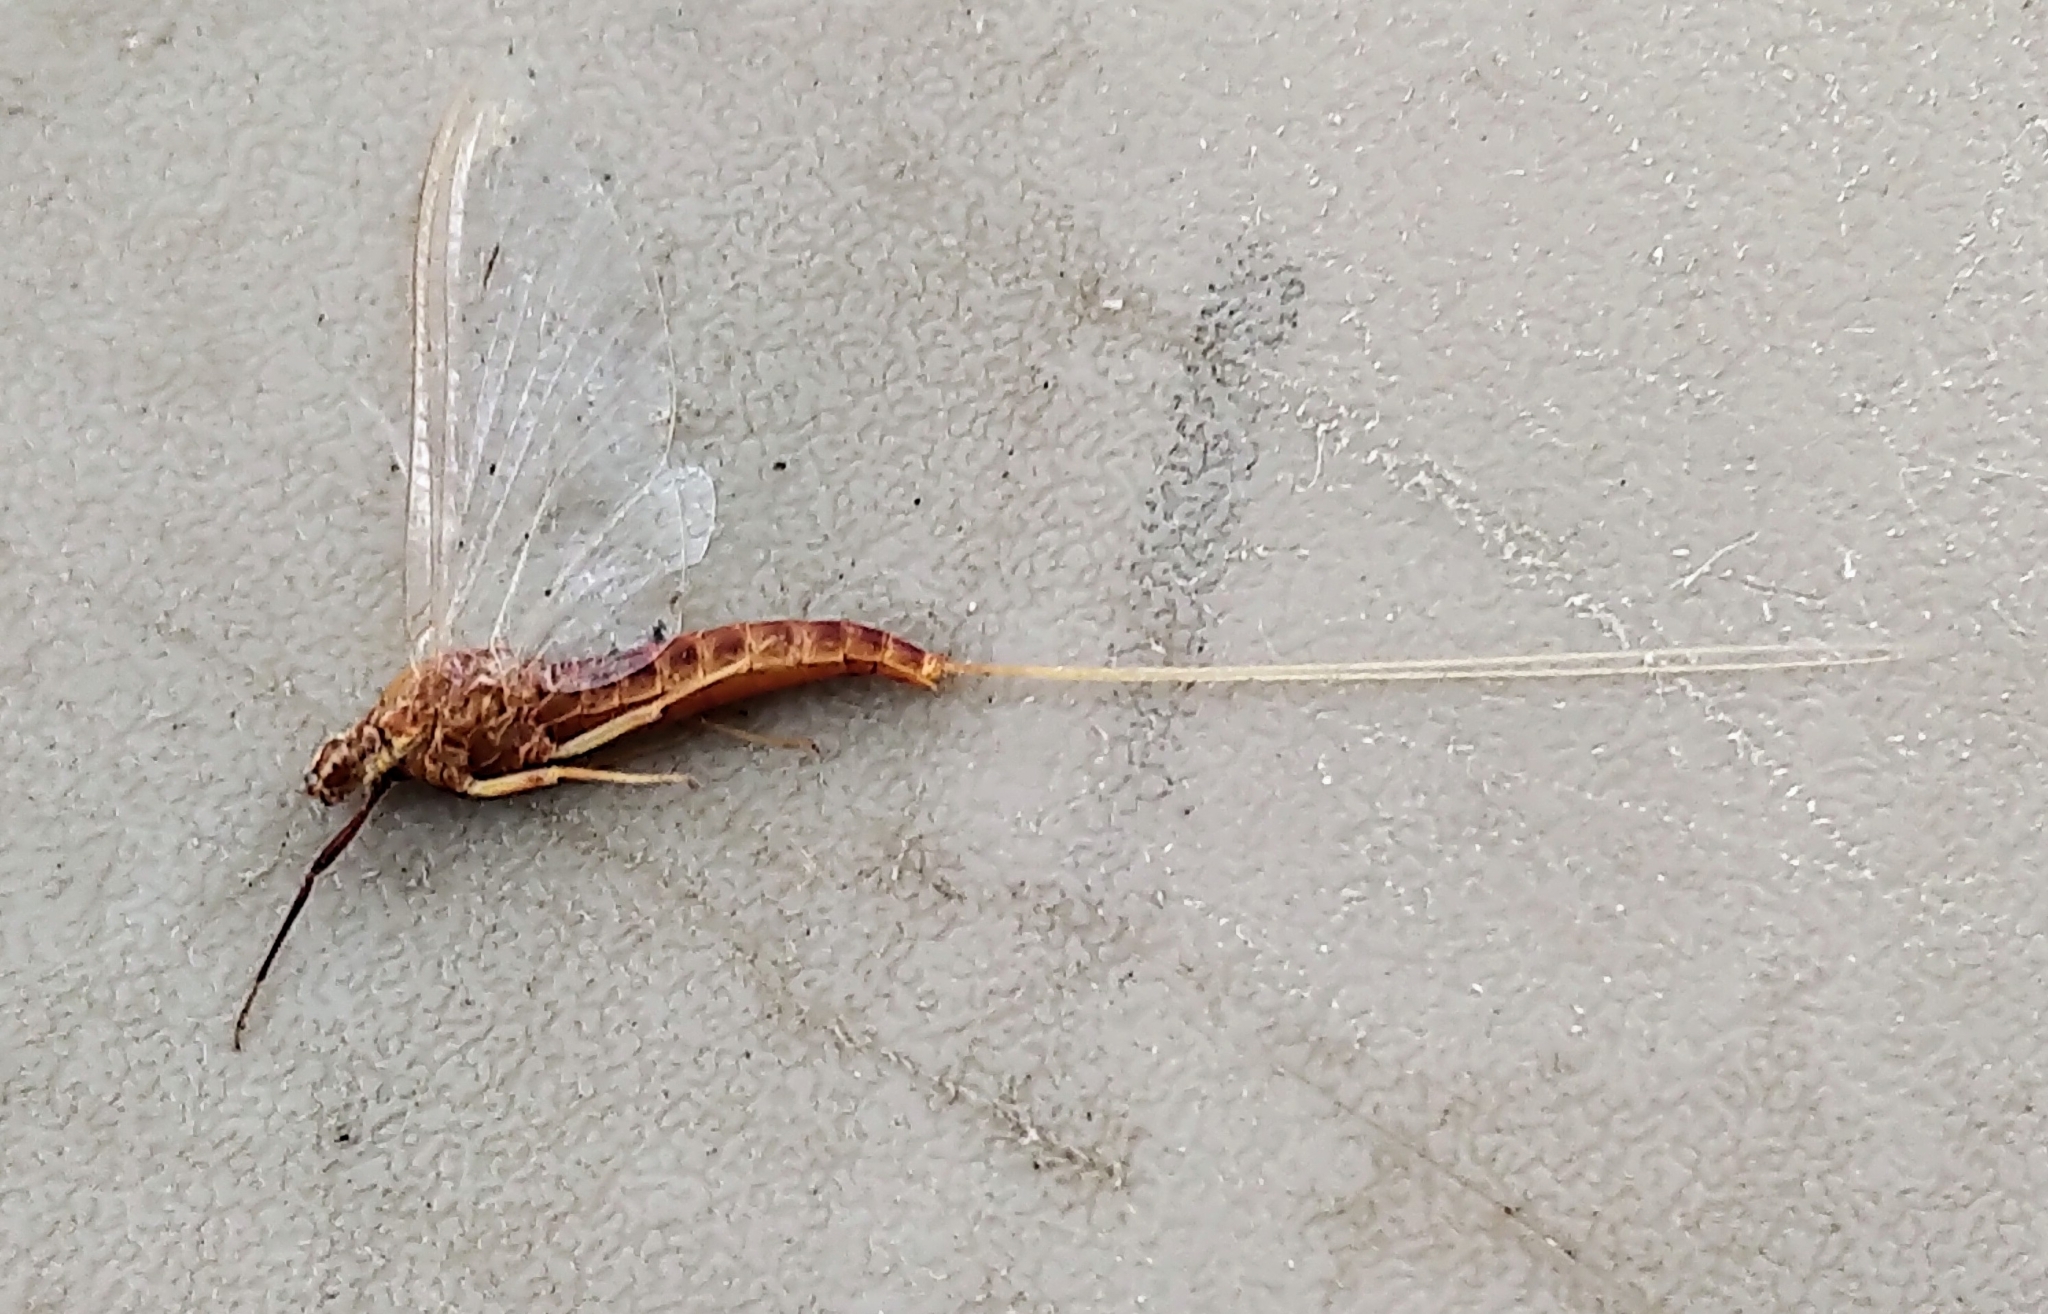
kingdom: Animalia
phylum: Arthropoda
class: Insecta
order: Ephemeroptera
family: Isonychiidae
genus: Isonychia
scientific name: Isonychia velma
